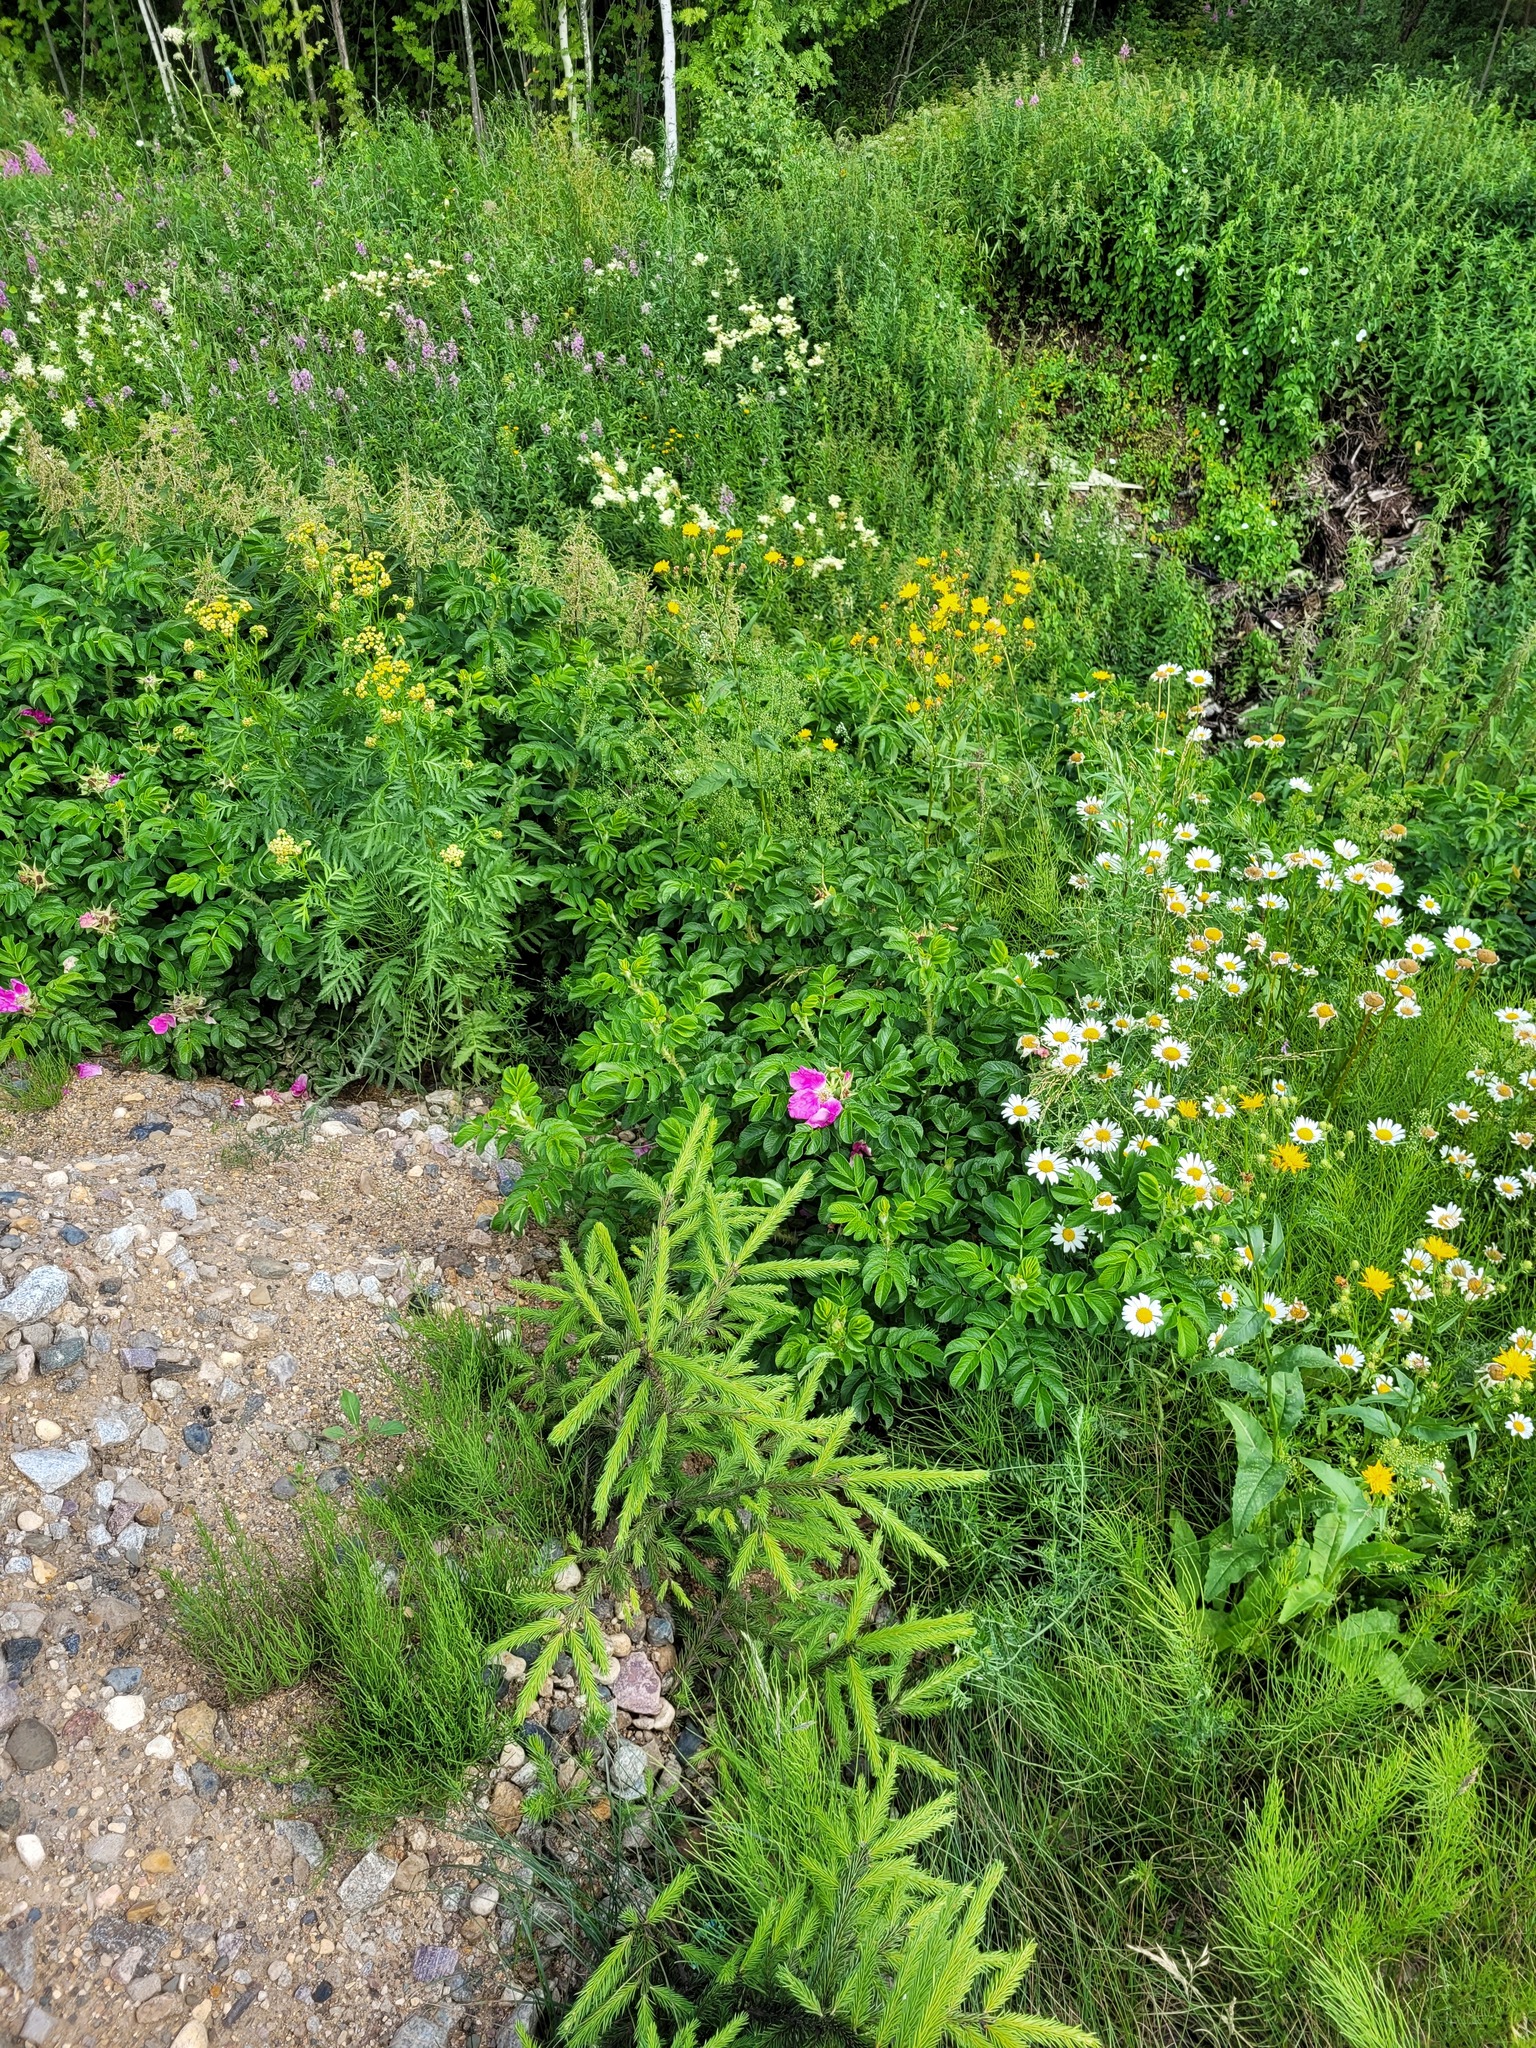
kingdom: Plantae
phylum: Tracheophyta
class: Pinopsida
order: Pinales
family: Pinaceae
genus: Picea
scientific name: Picea abies
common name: Norway spruce
